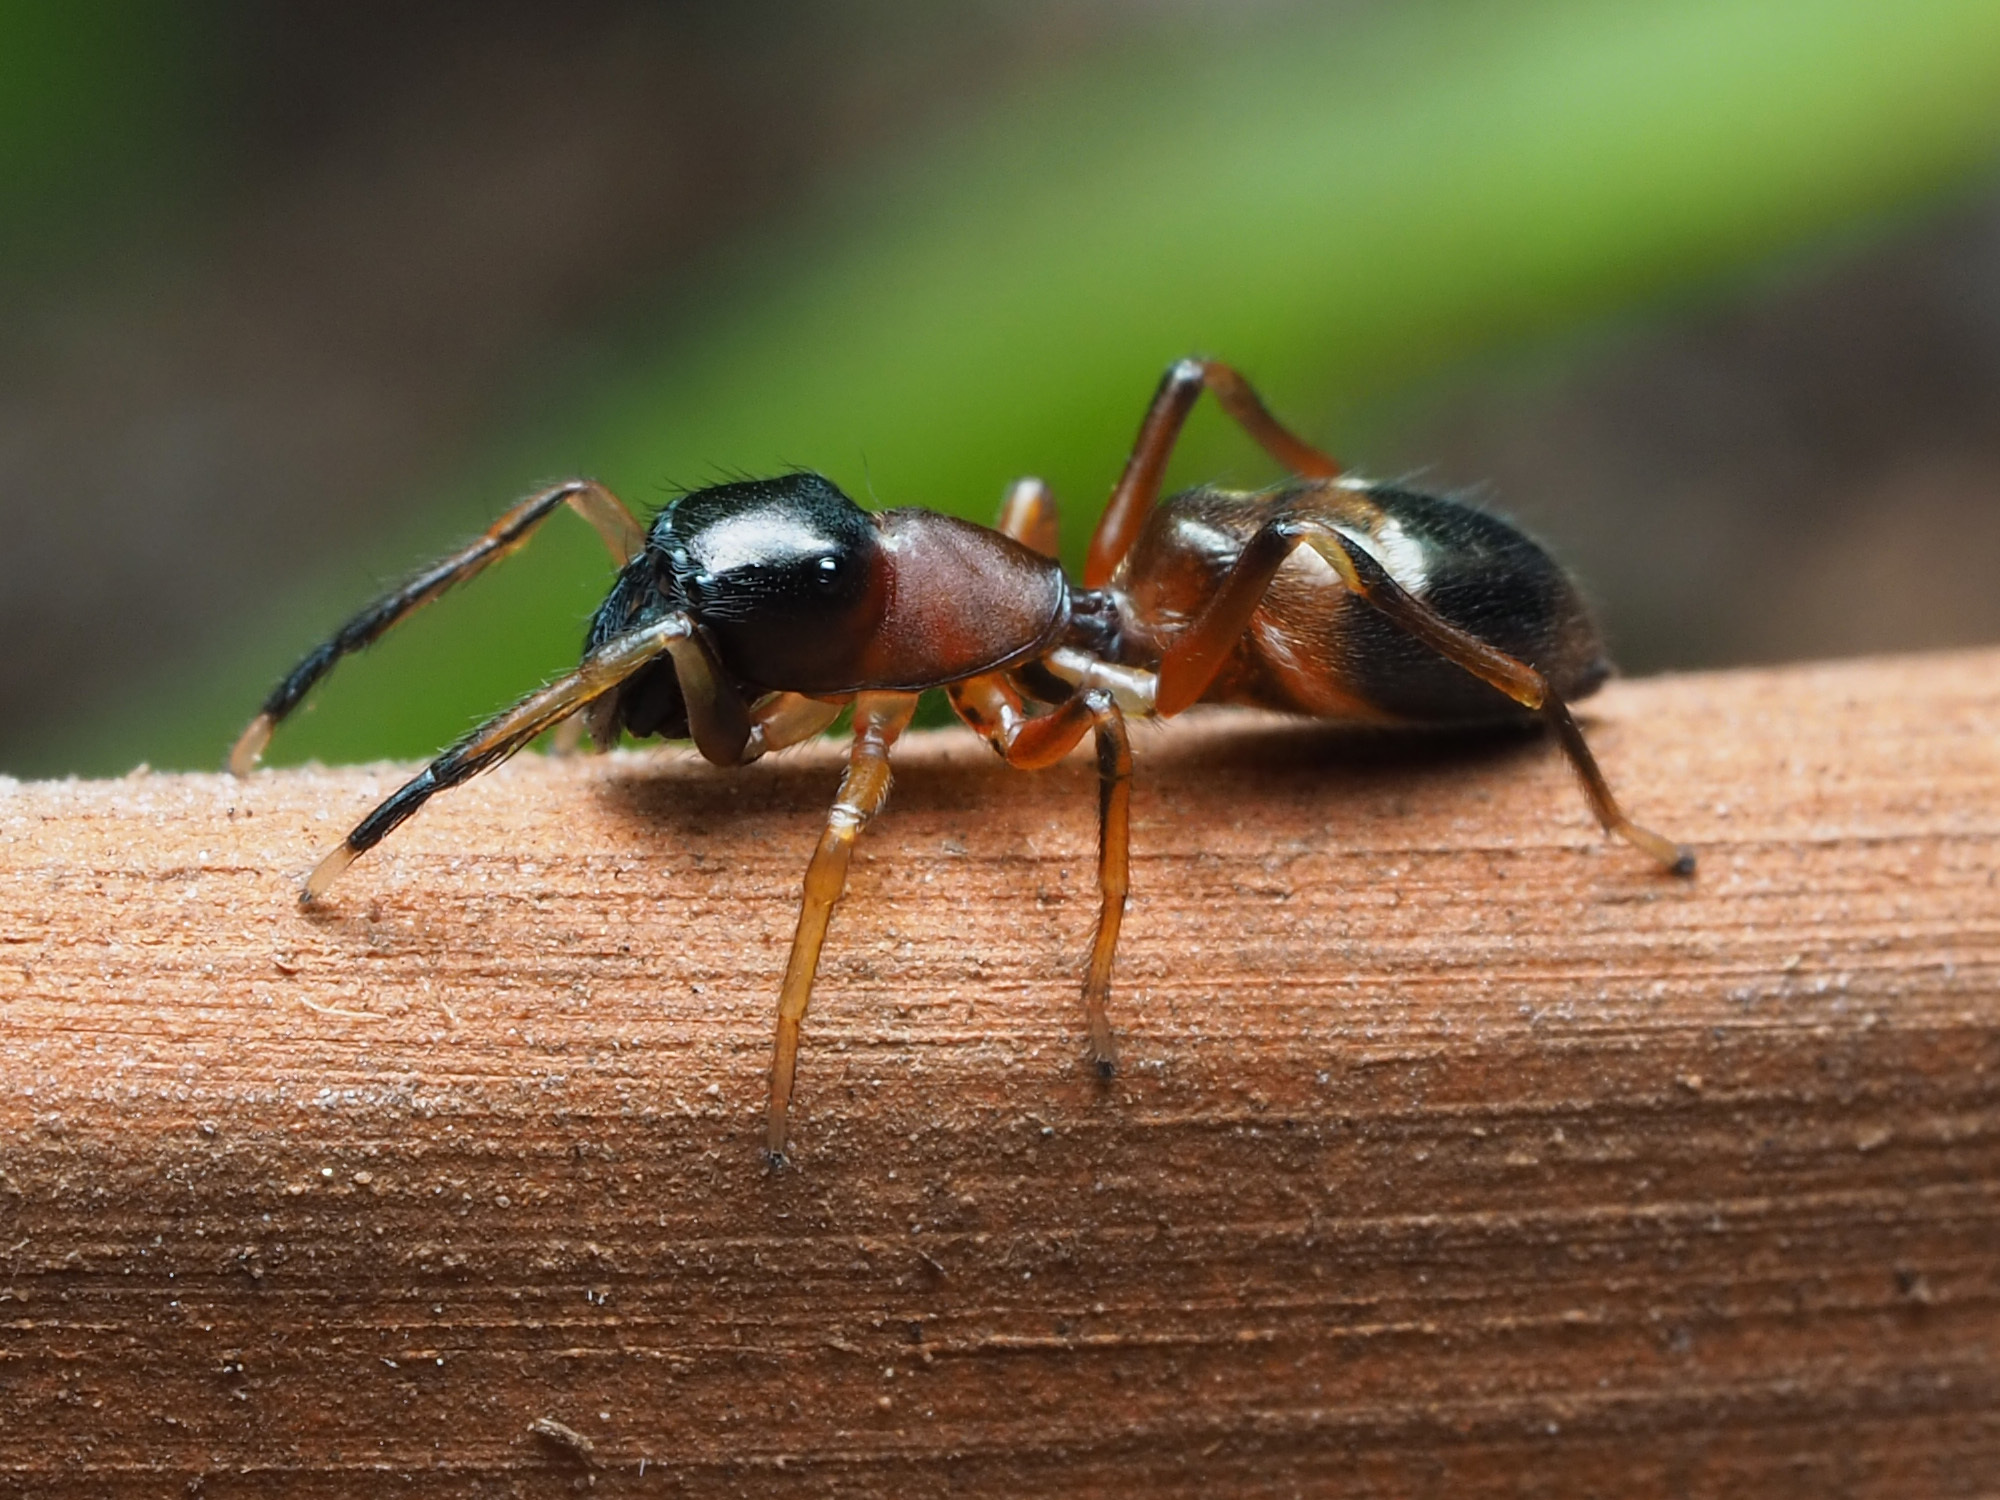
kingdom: Animalia
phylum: Arthropoda
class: Arachnida
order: Araneae
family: Salticidae
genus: Myrmarachne
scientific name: Myrmarachne formicaria
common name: Ant mimic jumping spider
